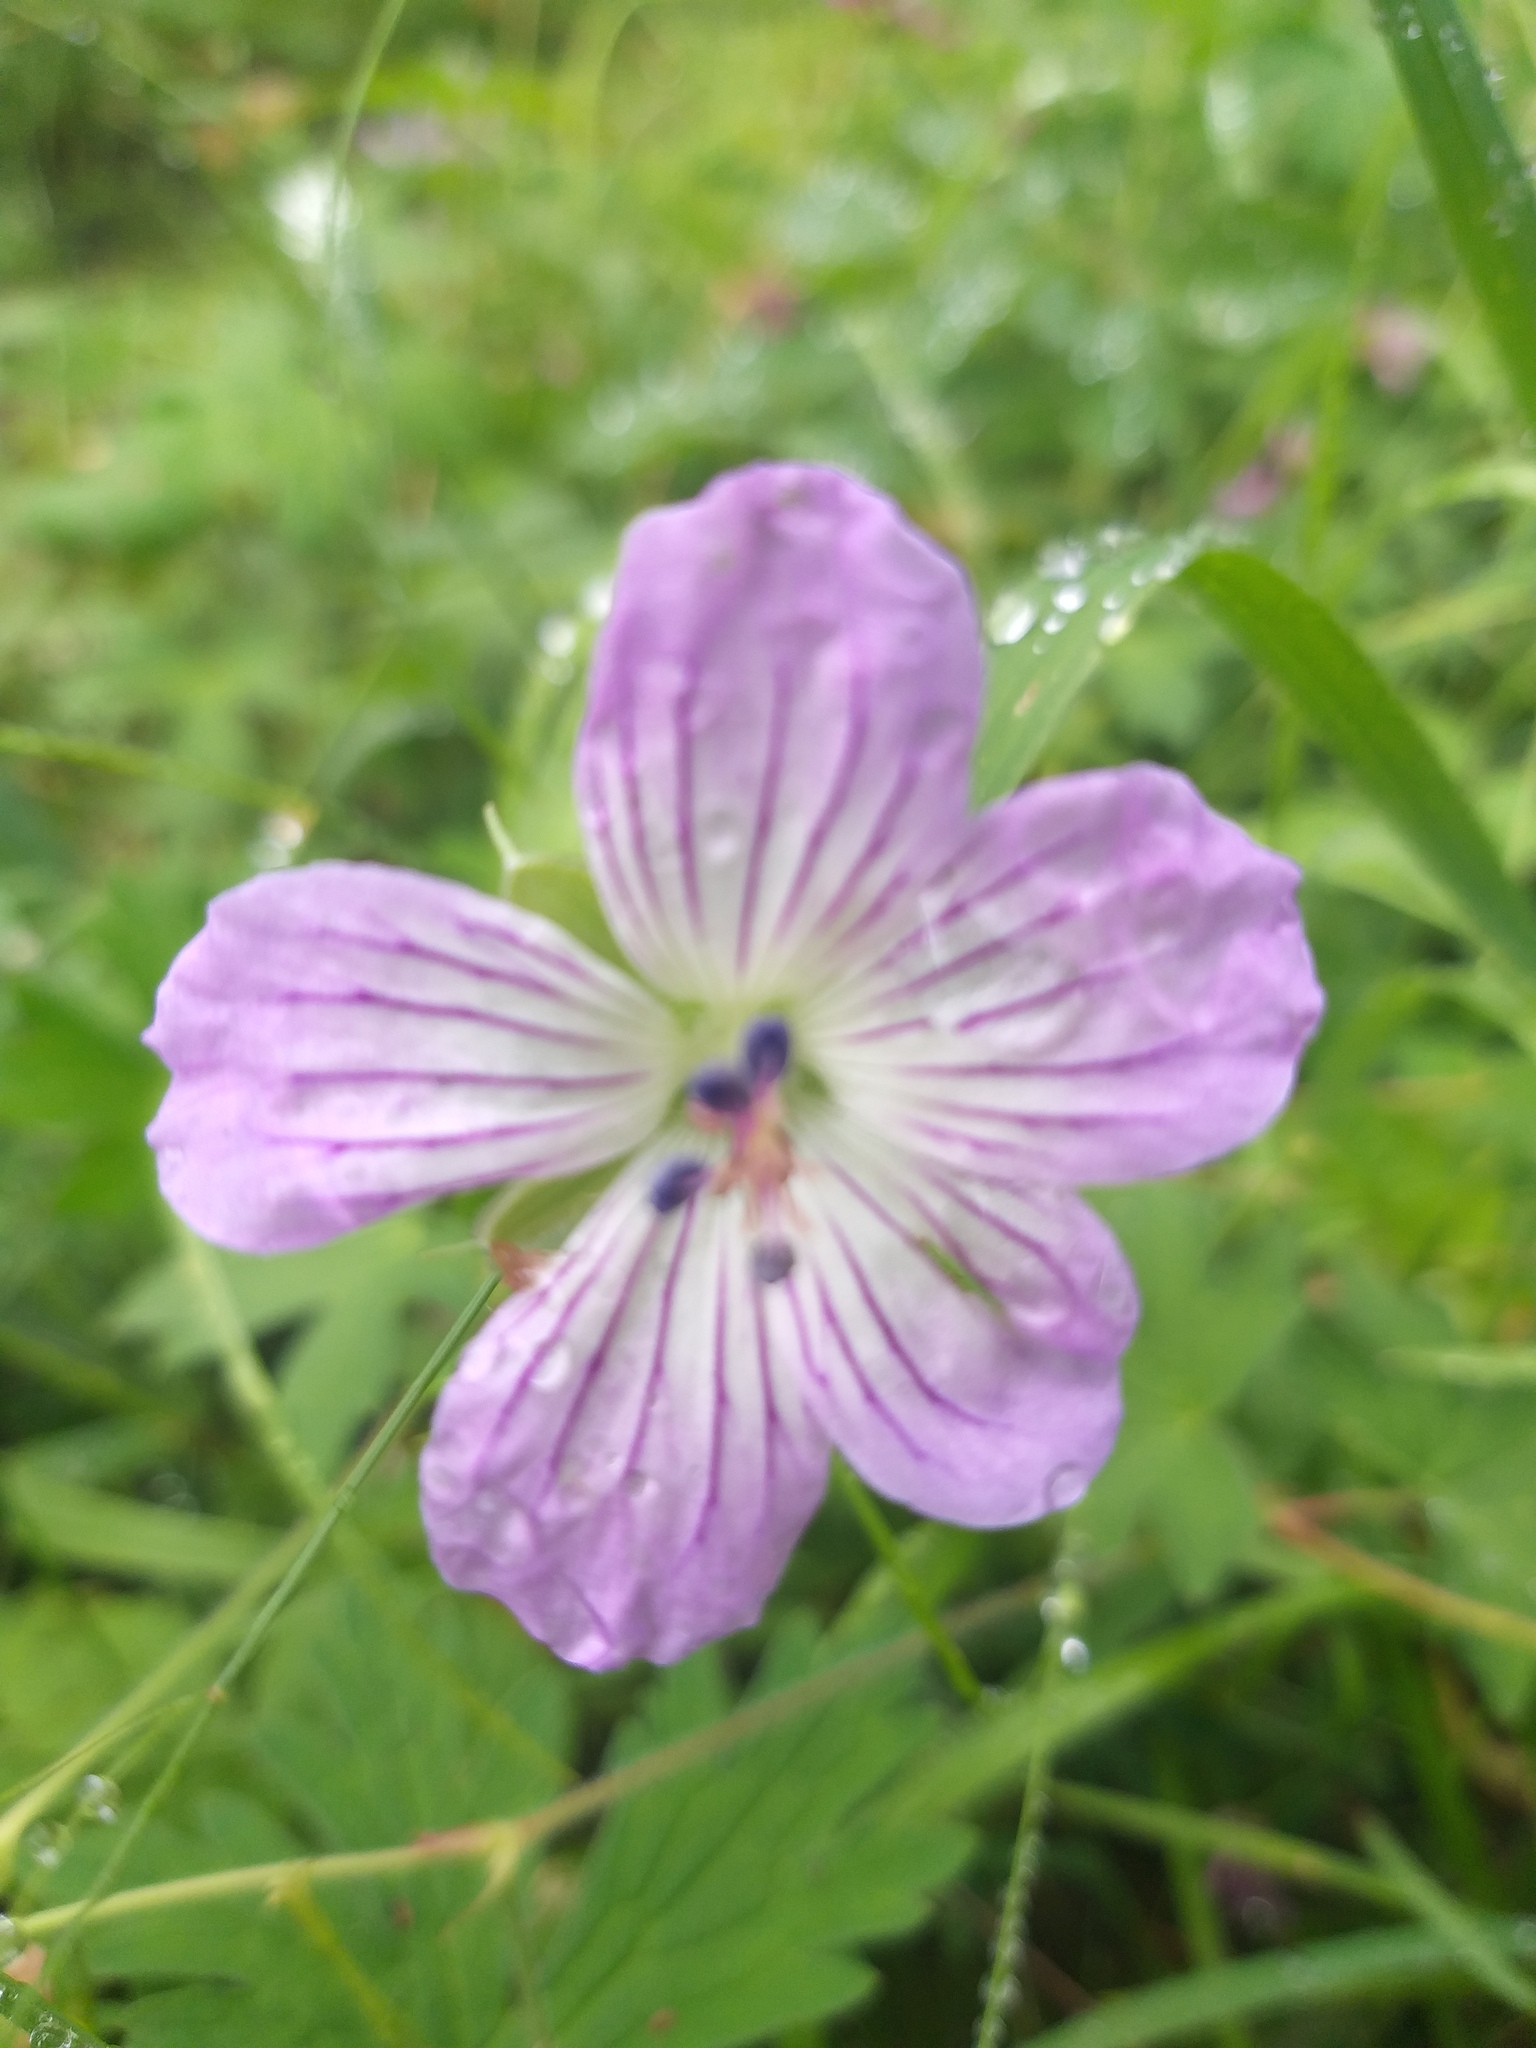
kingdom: Plantae
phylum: Tracheophyta
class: Magnoliopsida
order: Geraniales
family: Geraniaceae
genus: Geranium
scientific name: Geranium wlassovianum
